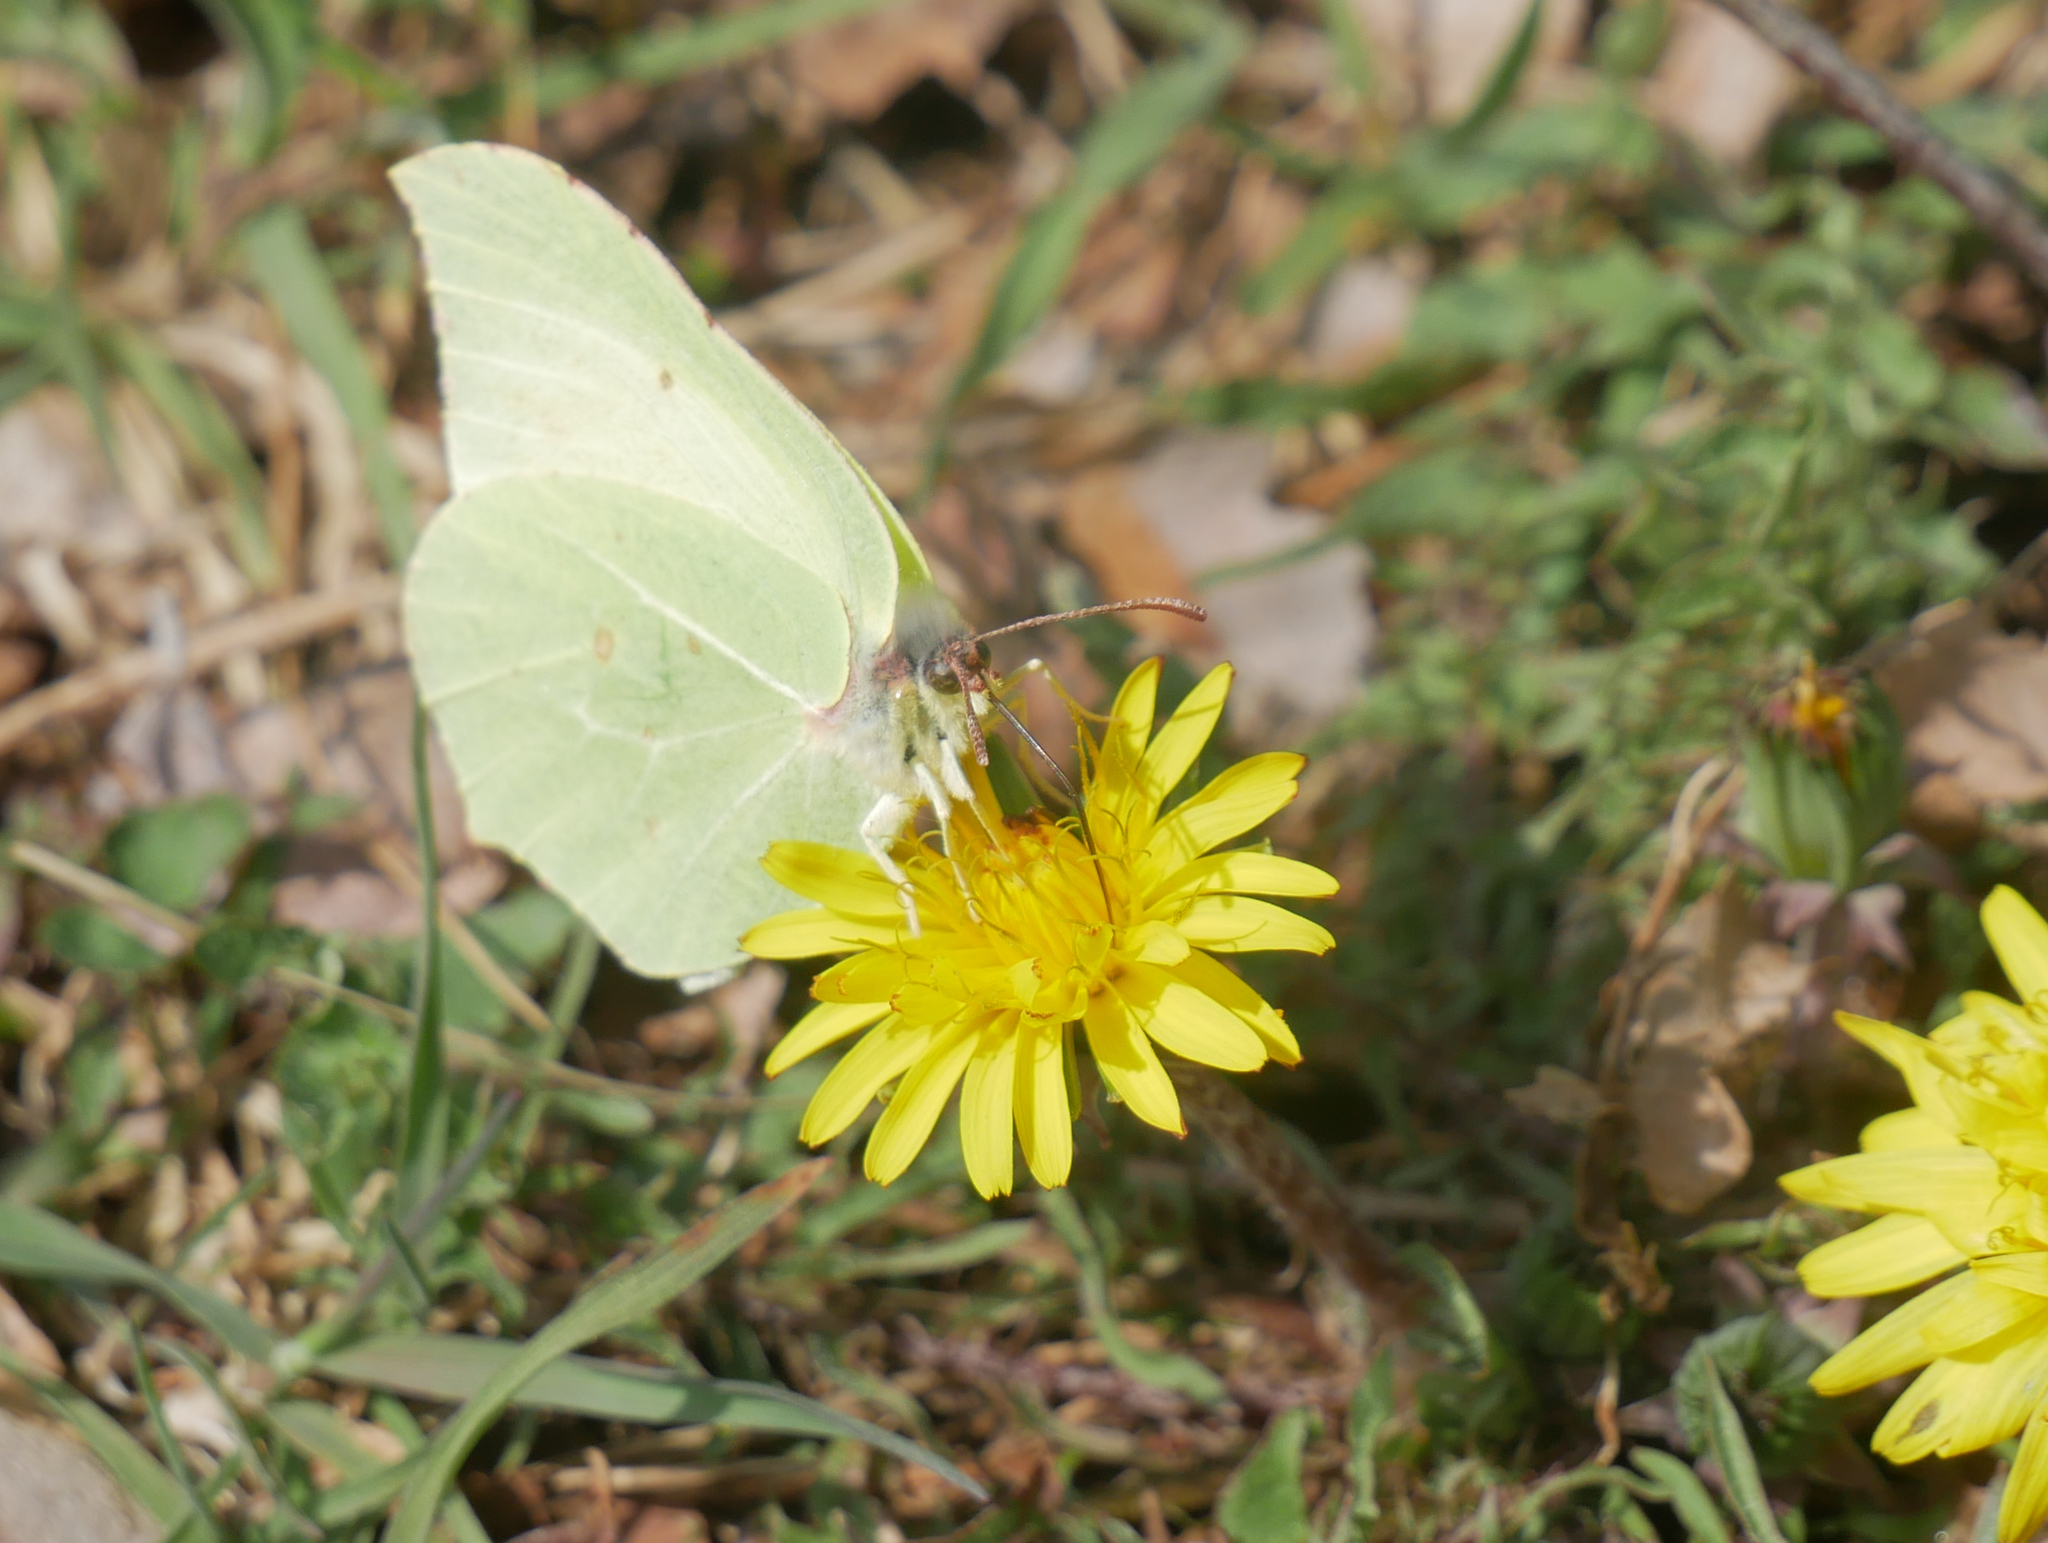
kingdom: Animalia
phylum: Arthropoda
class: Insecta
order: Lepidoptera
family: Pieridae
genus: Gonepteryx
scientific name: Gonepteryx rhamni
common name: Brimstone
